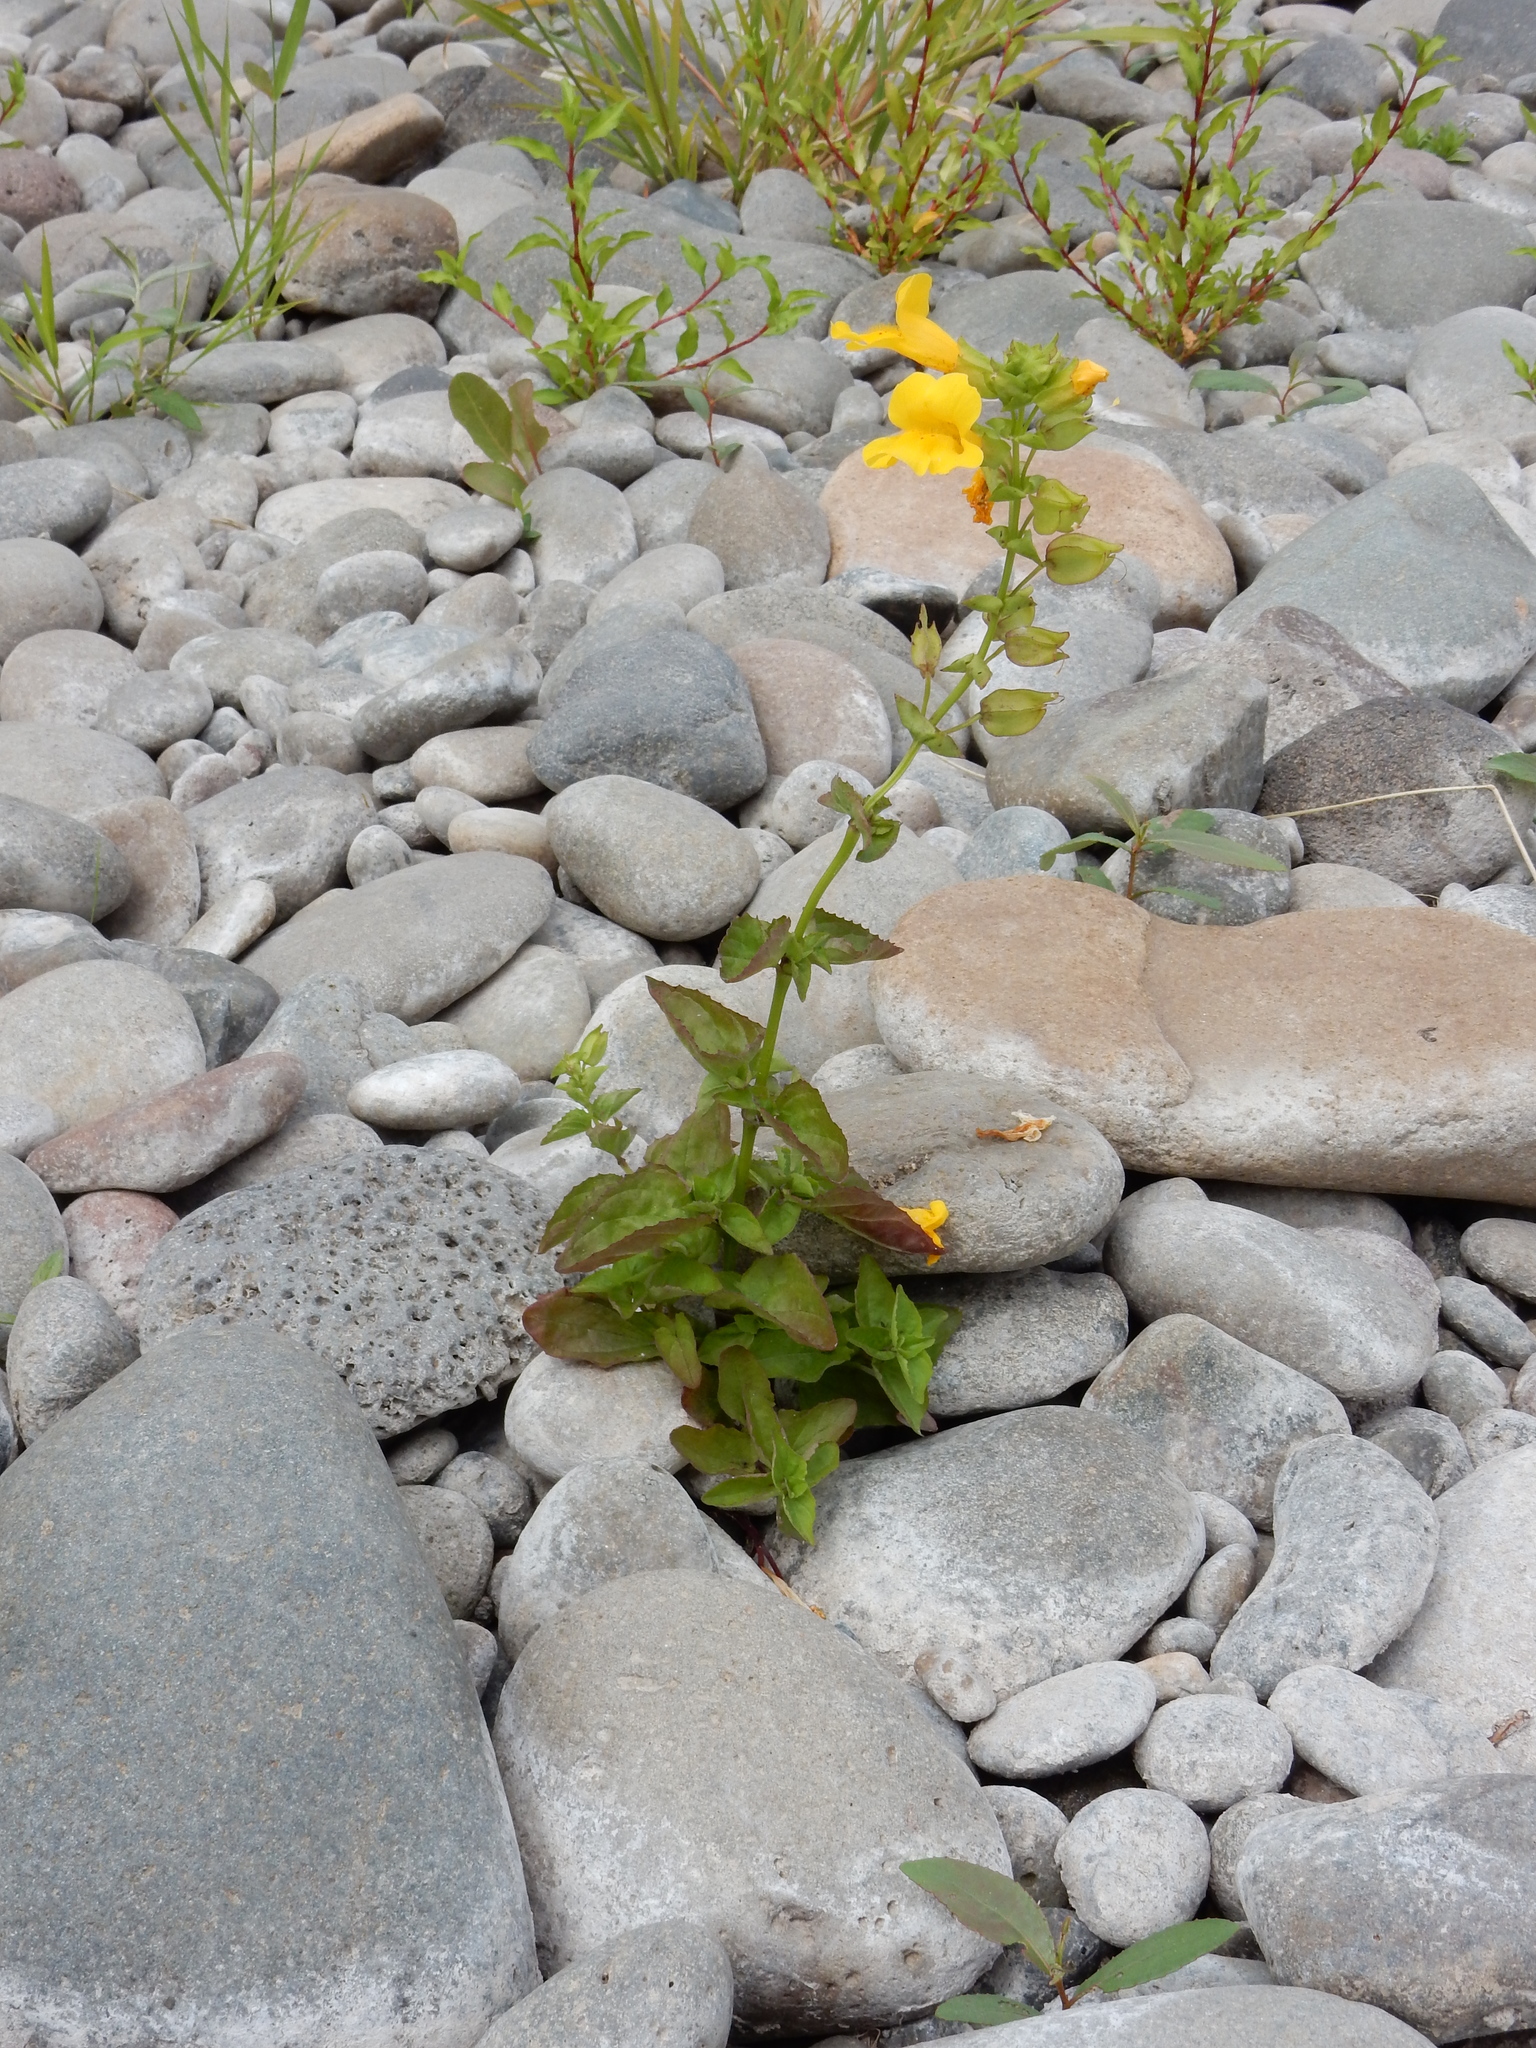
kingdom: Plantae
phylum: Tracheophyta
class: Magnoliopsida
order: Lamiales
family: Phrymaceae
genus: Erythranthe
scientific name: Erythranthe guttata
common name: Monkeyflower
